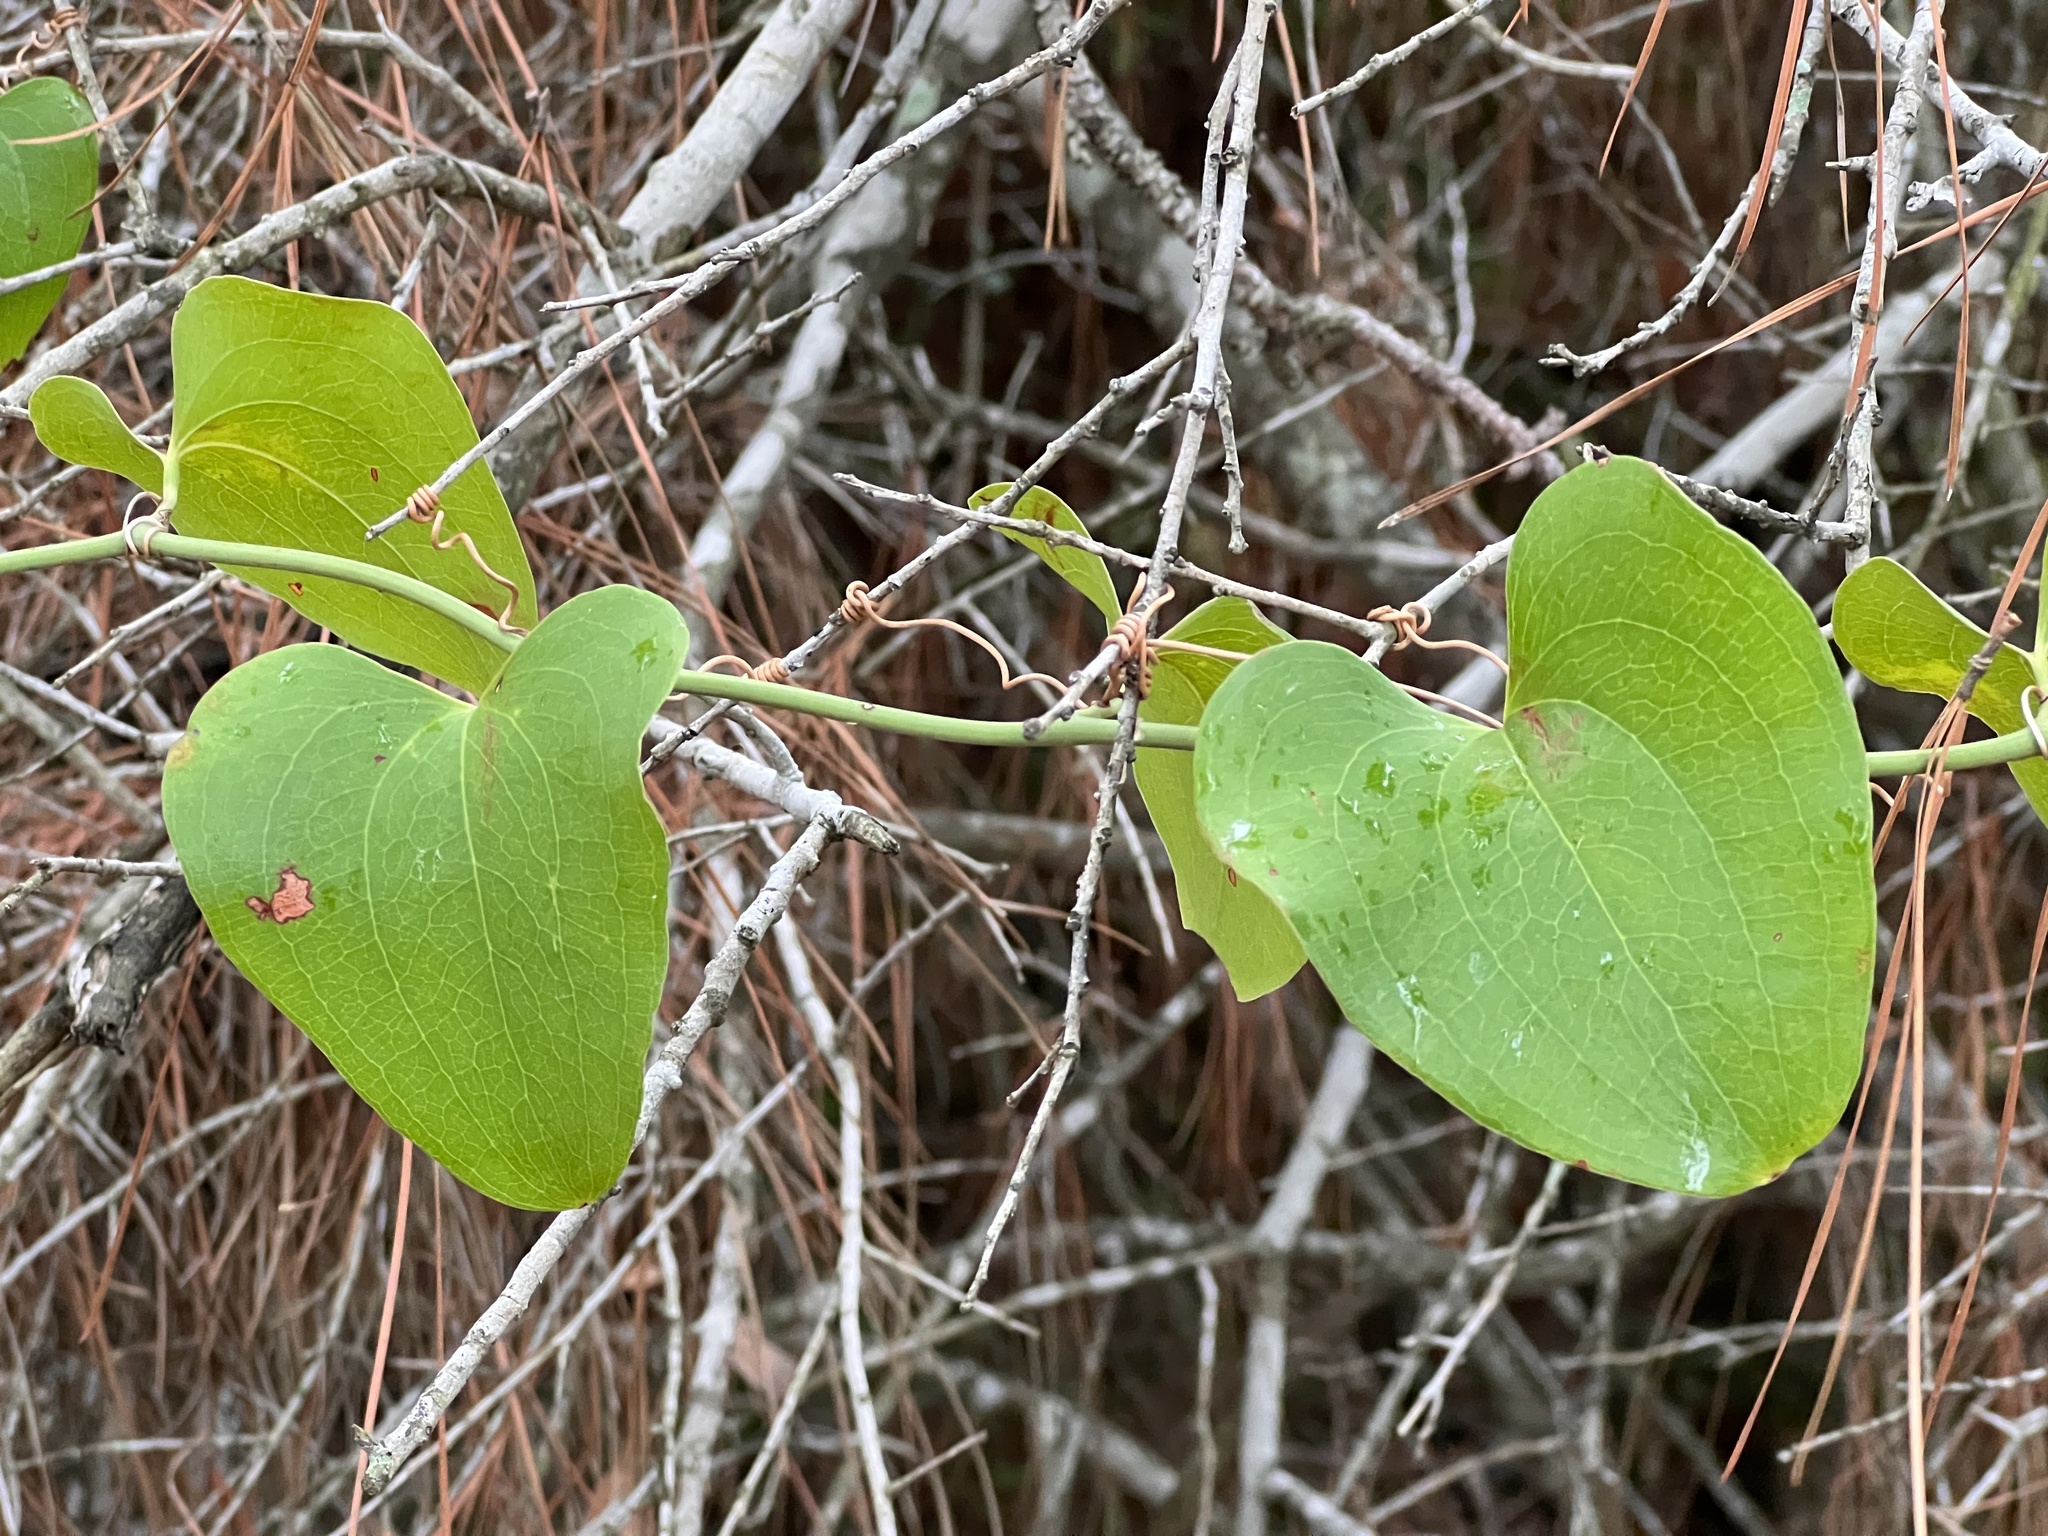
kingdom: Plantae
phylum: Tracheophyta
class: Liliopsida
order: Liliales
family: Smilacaceae
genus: Smilax
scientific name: Smilax bona-nox
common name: Catbrier
